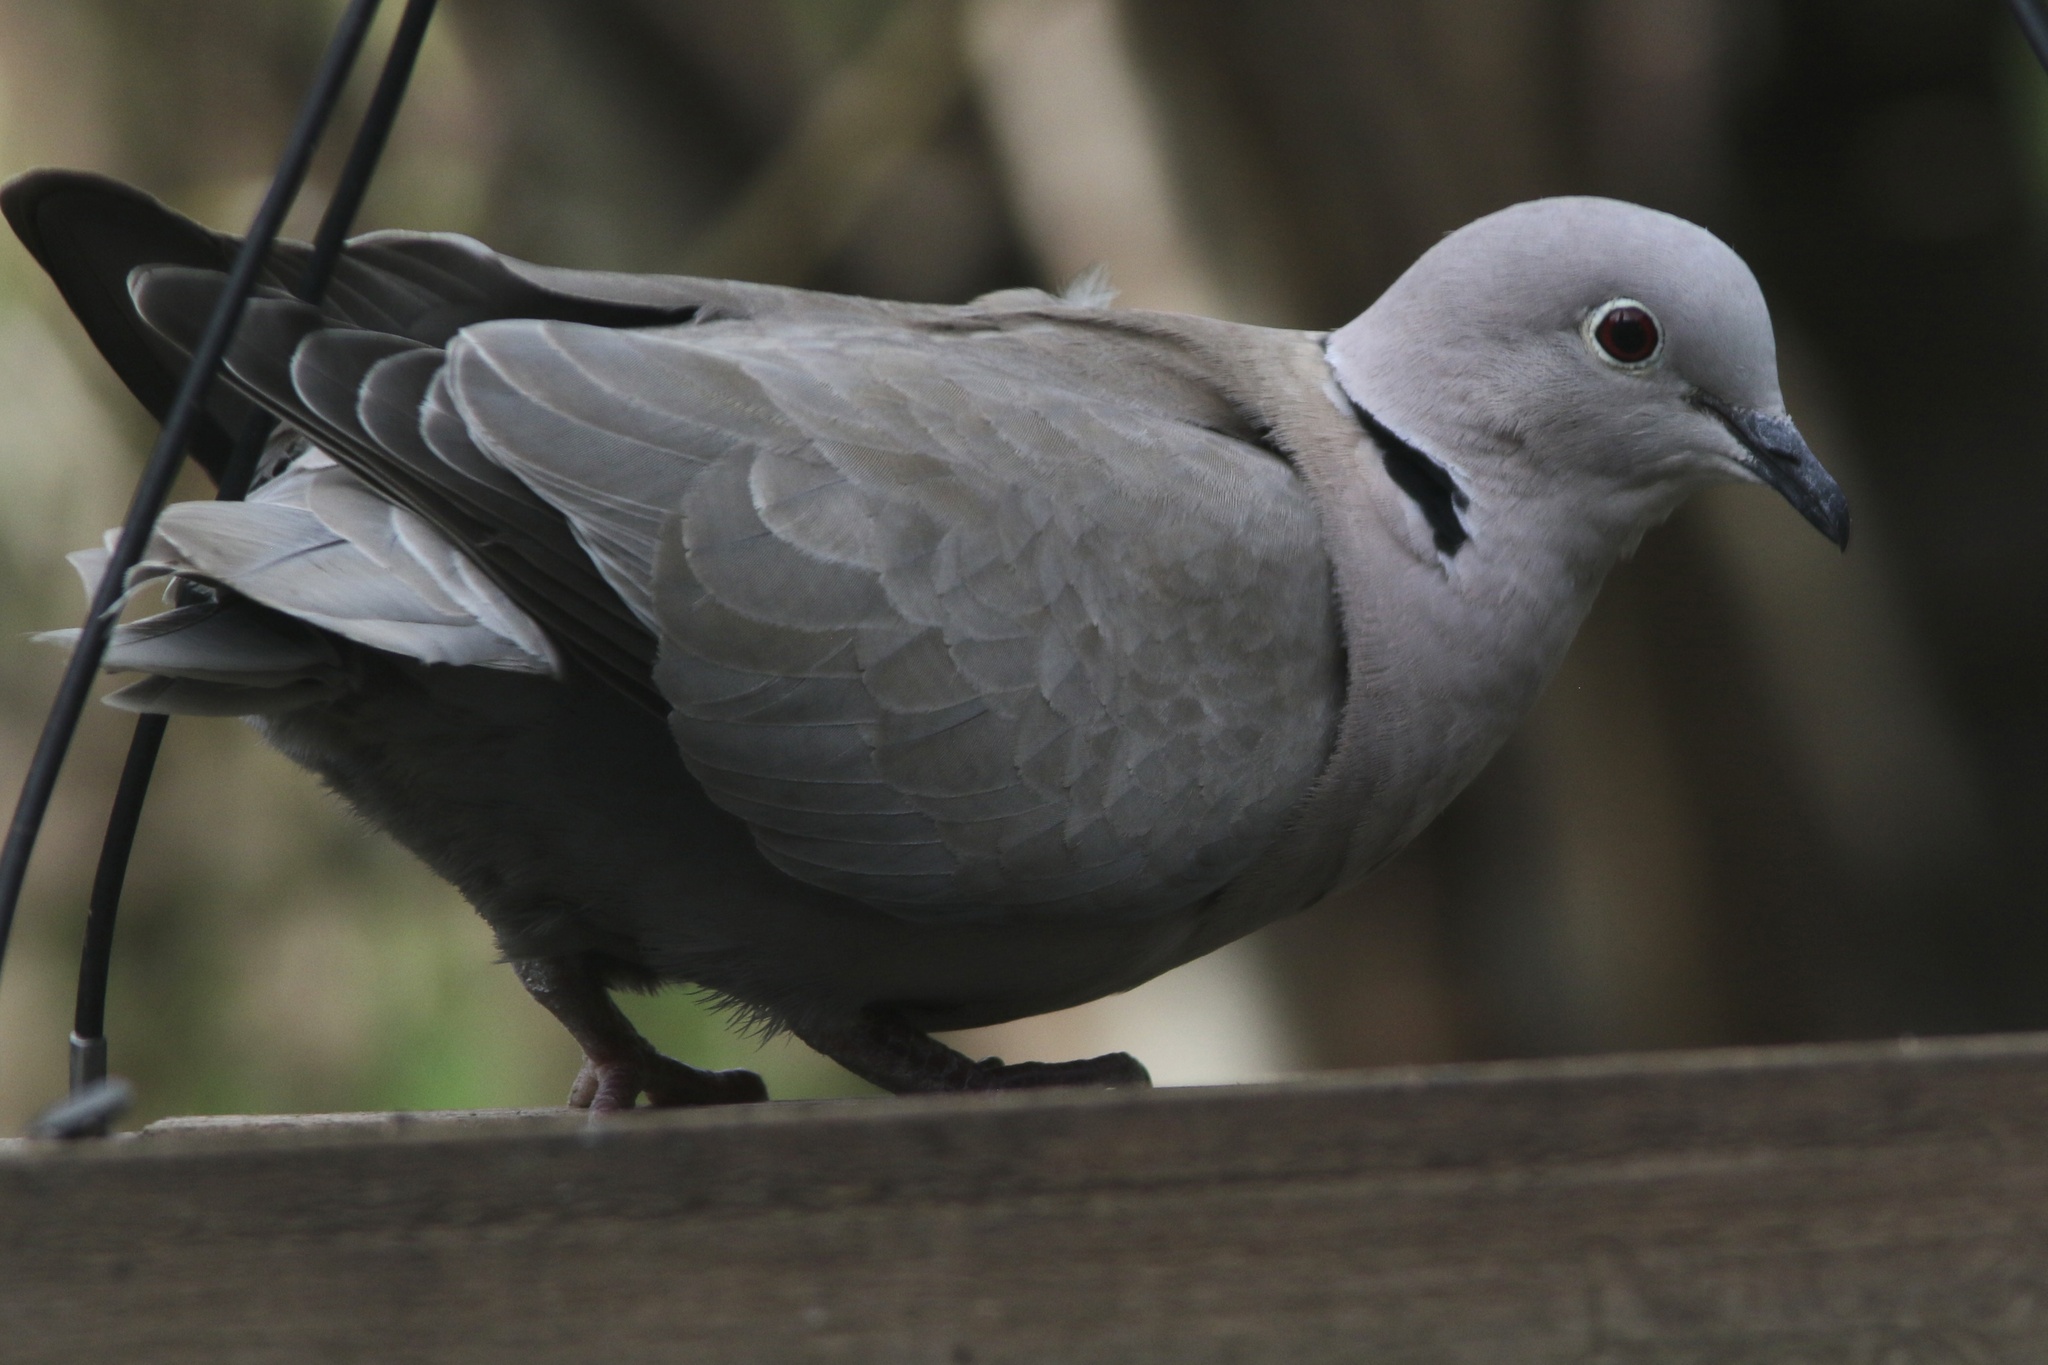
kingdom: Animalia
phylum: Chordata
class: Aves
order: Columbiformes
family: Columbidae
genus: Streptopelia
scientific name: Streptopelia decaocto
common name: Eurasian collared dove
